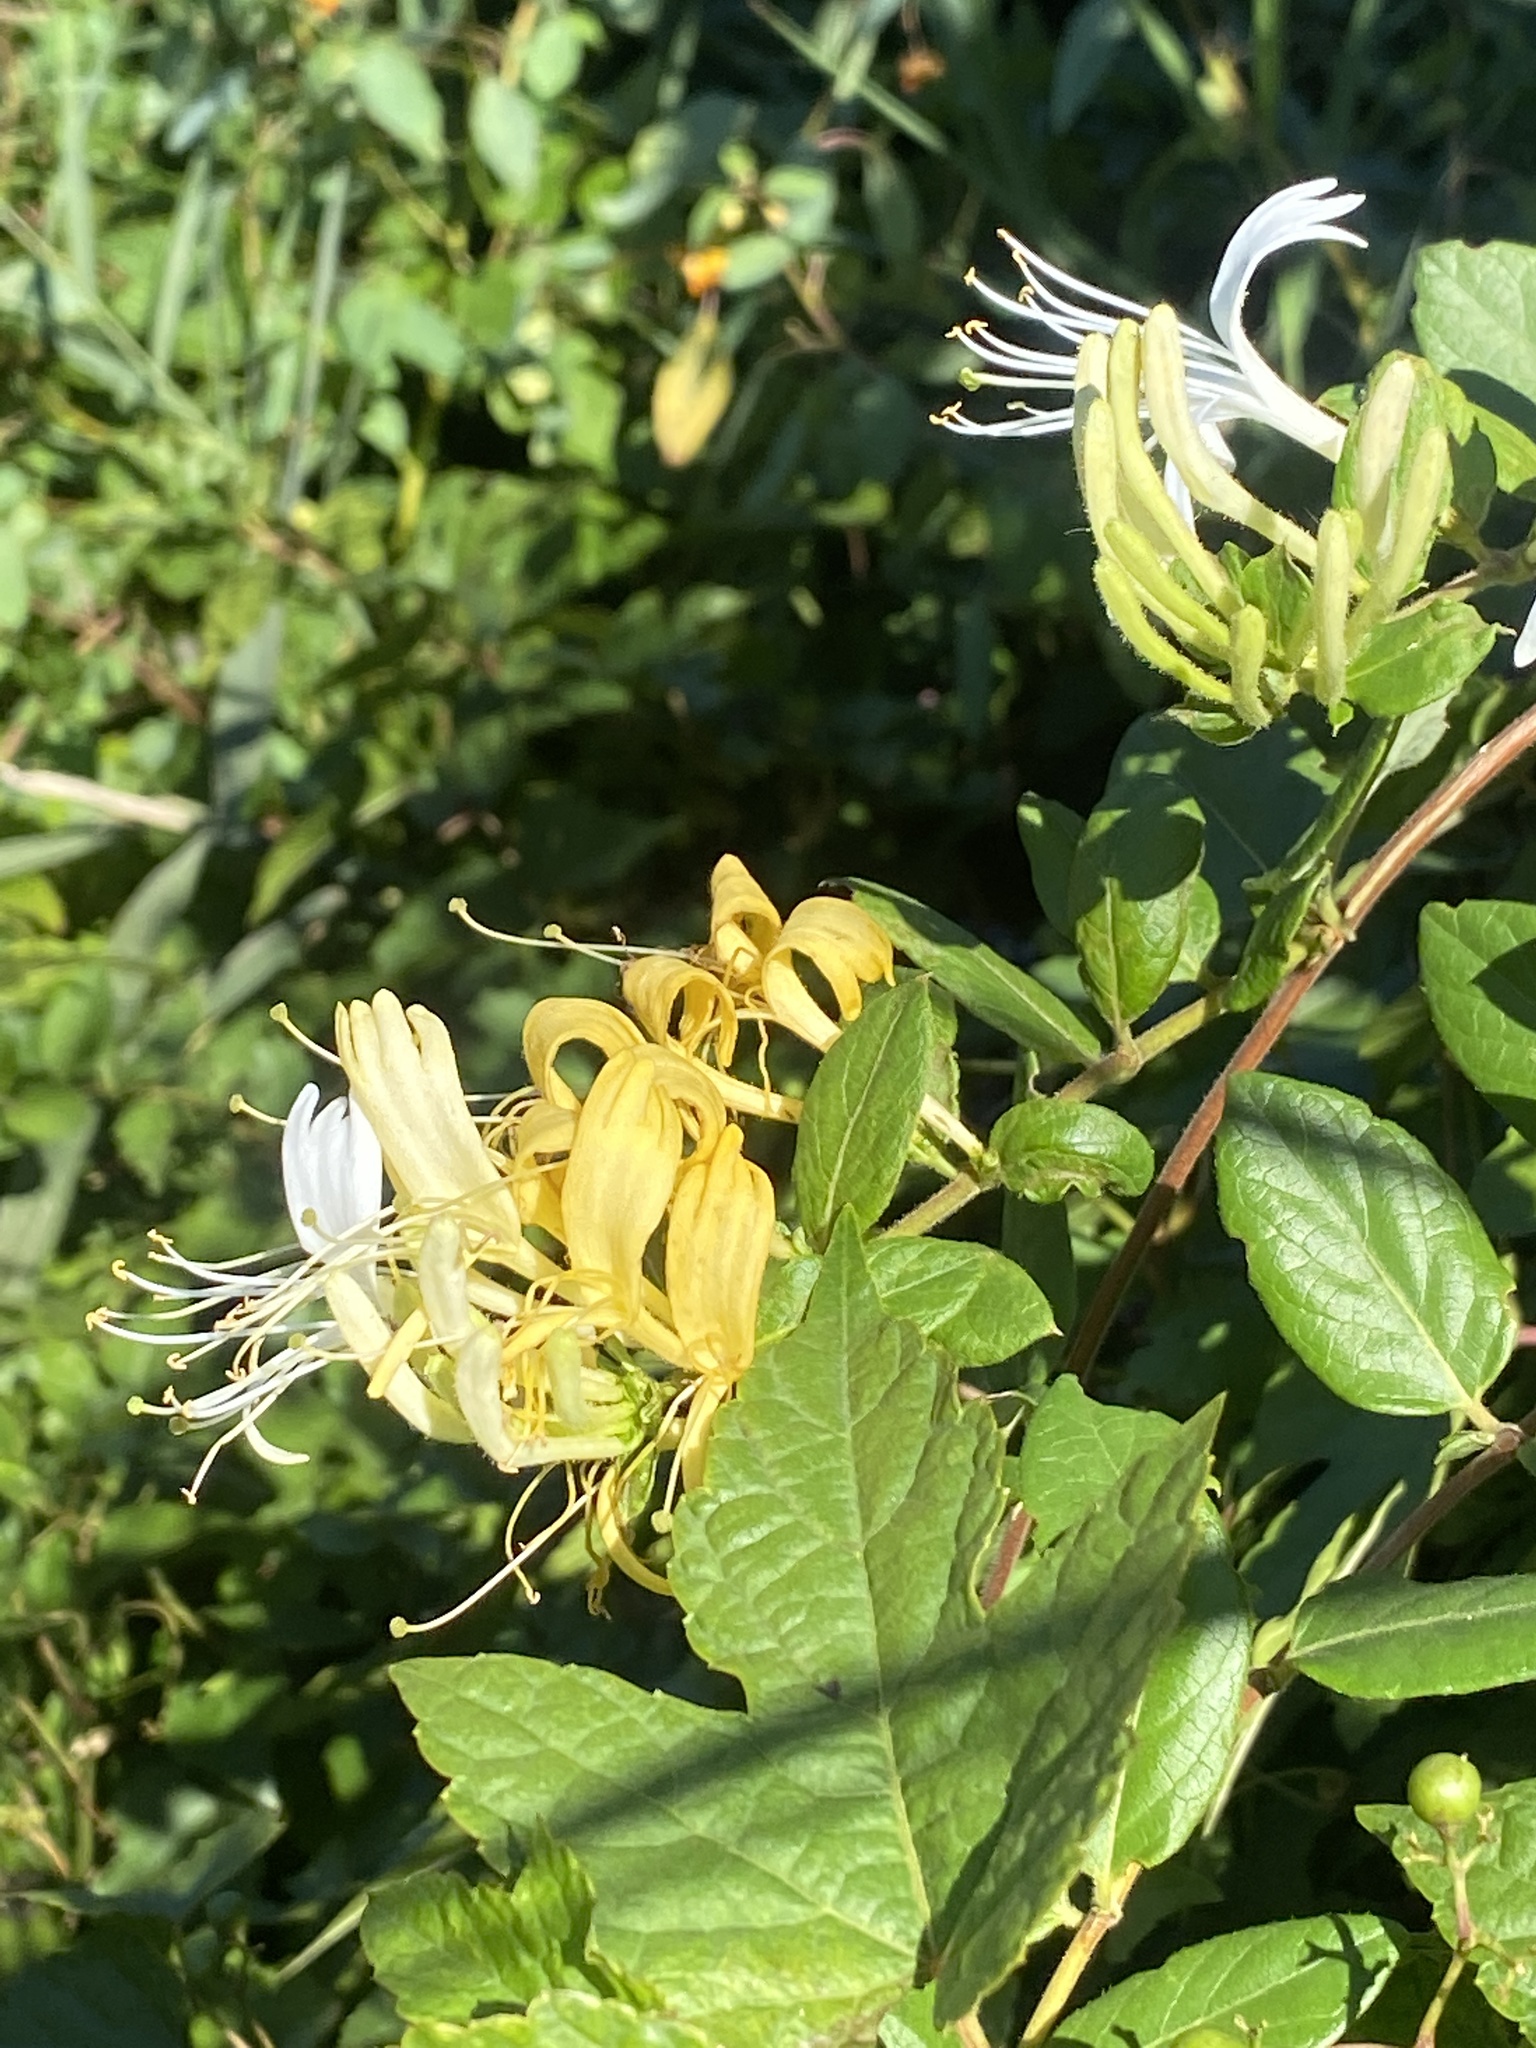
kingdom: Plantae
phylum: Tracheophyta
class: Magnoliopsida
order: Dipsacales
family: Caprifoliaceae
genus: Lonicera
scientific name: Lonicera japonica
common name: Japanese honeysuckle
